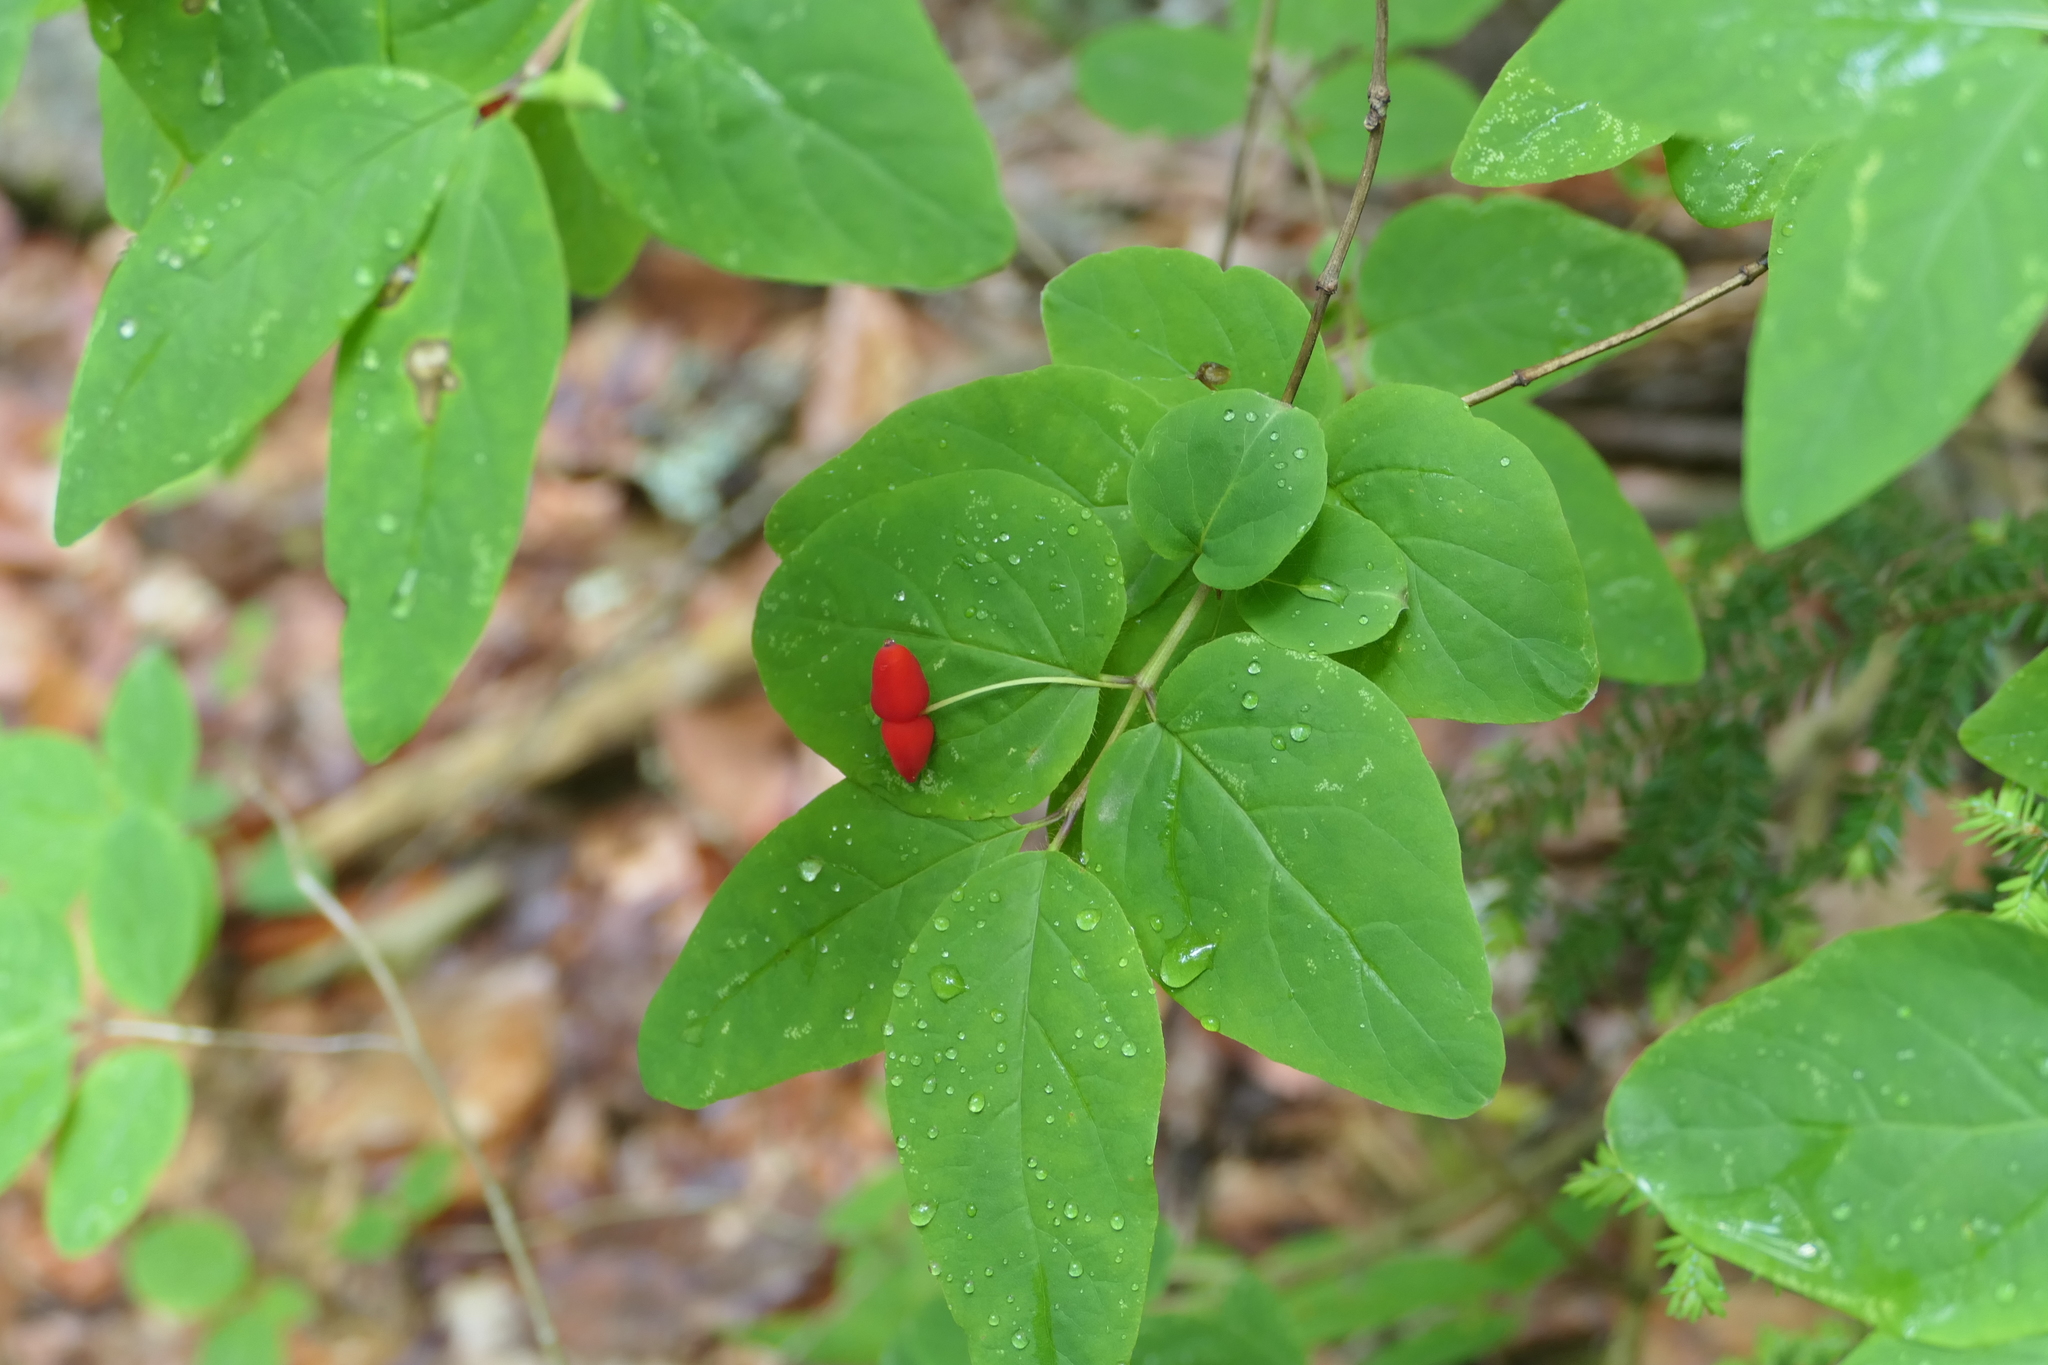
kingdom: Plantae
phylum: Tracheophyta
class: Magnoliopsida
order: Dipsacales
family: Caprifoliaceae
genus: Lonicera
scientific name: Lonicera canadensis
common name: American fly-honeysuckle
